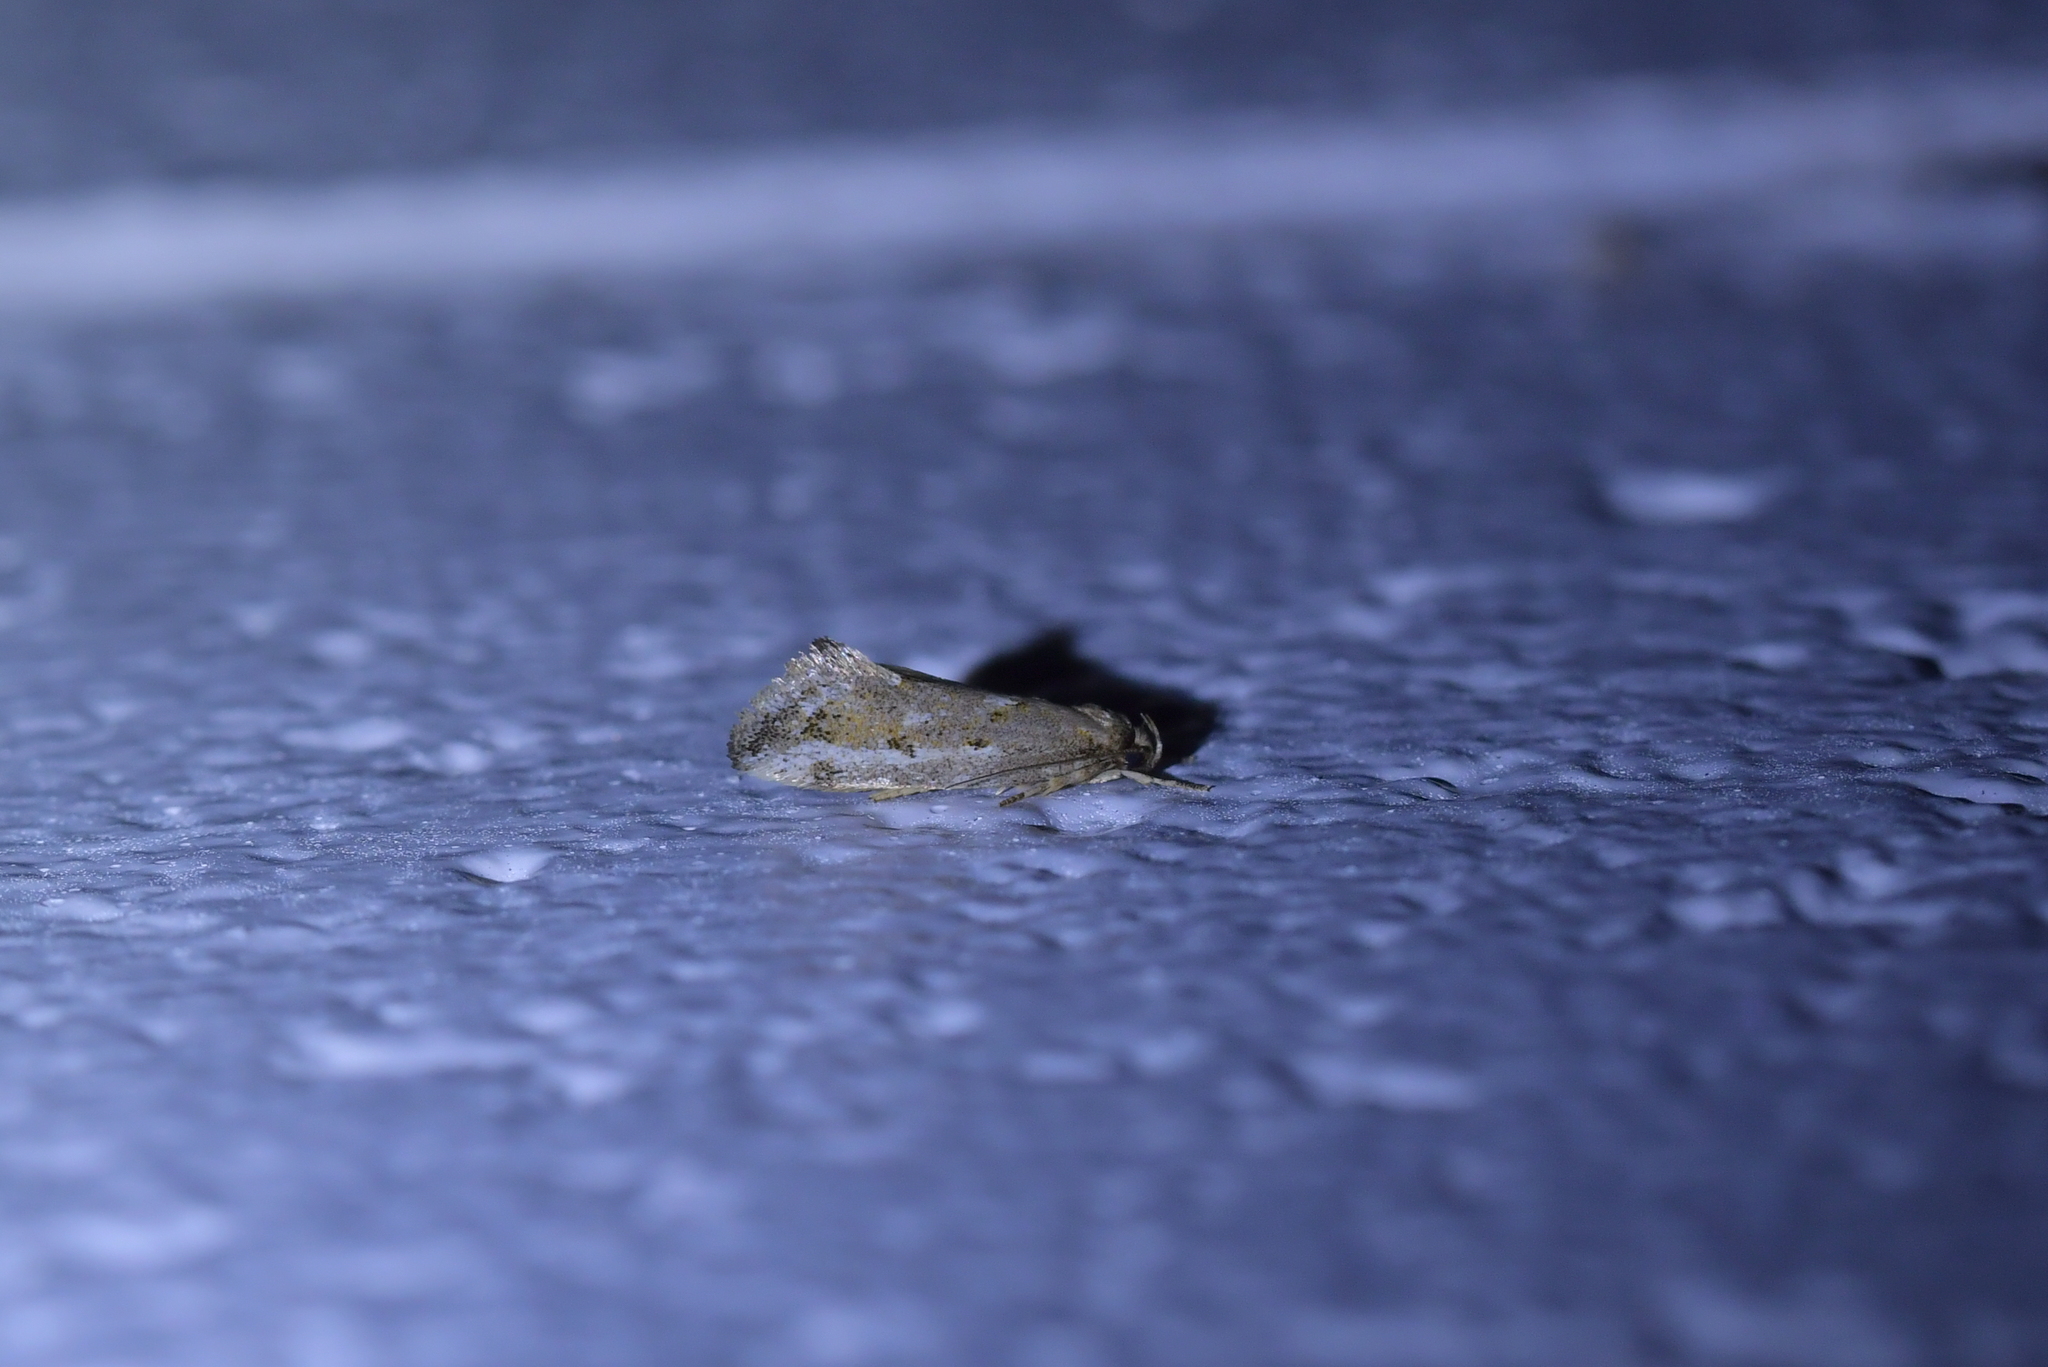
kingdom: Animalia
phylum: Arthropoda
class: Insecta
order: Lepidoptera
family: Oecophoridae
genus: Tingena
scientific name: Tingena hemimochla
